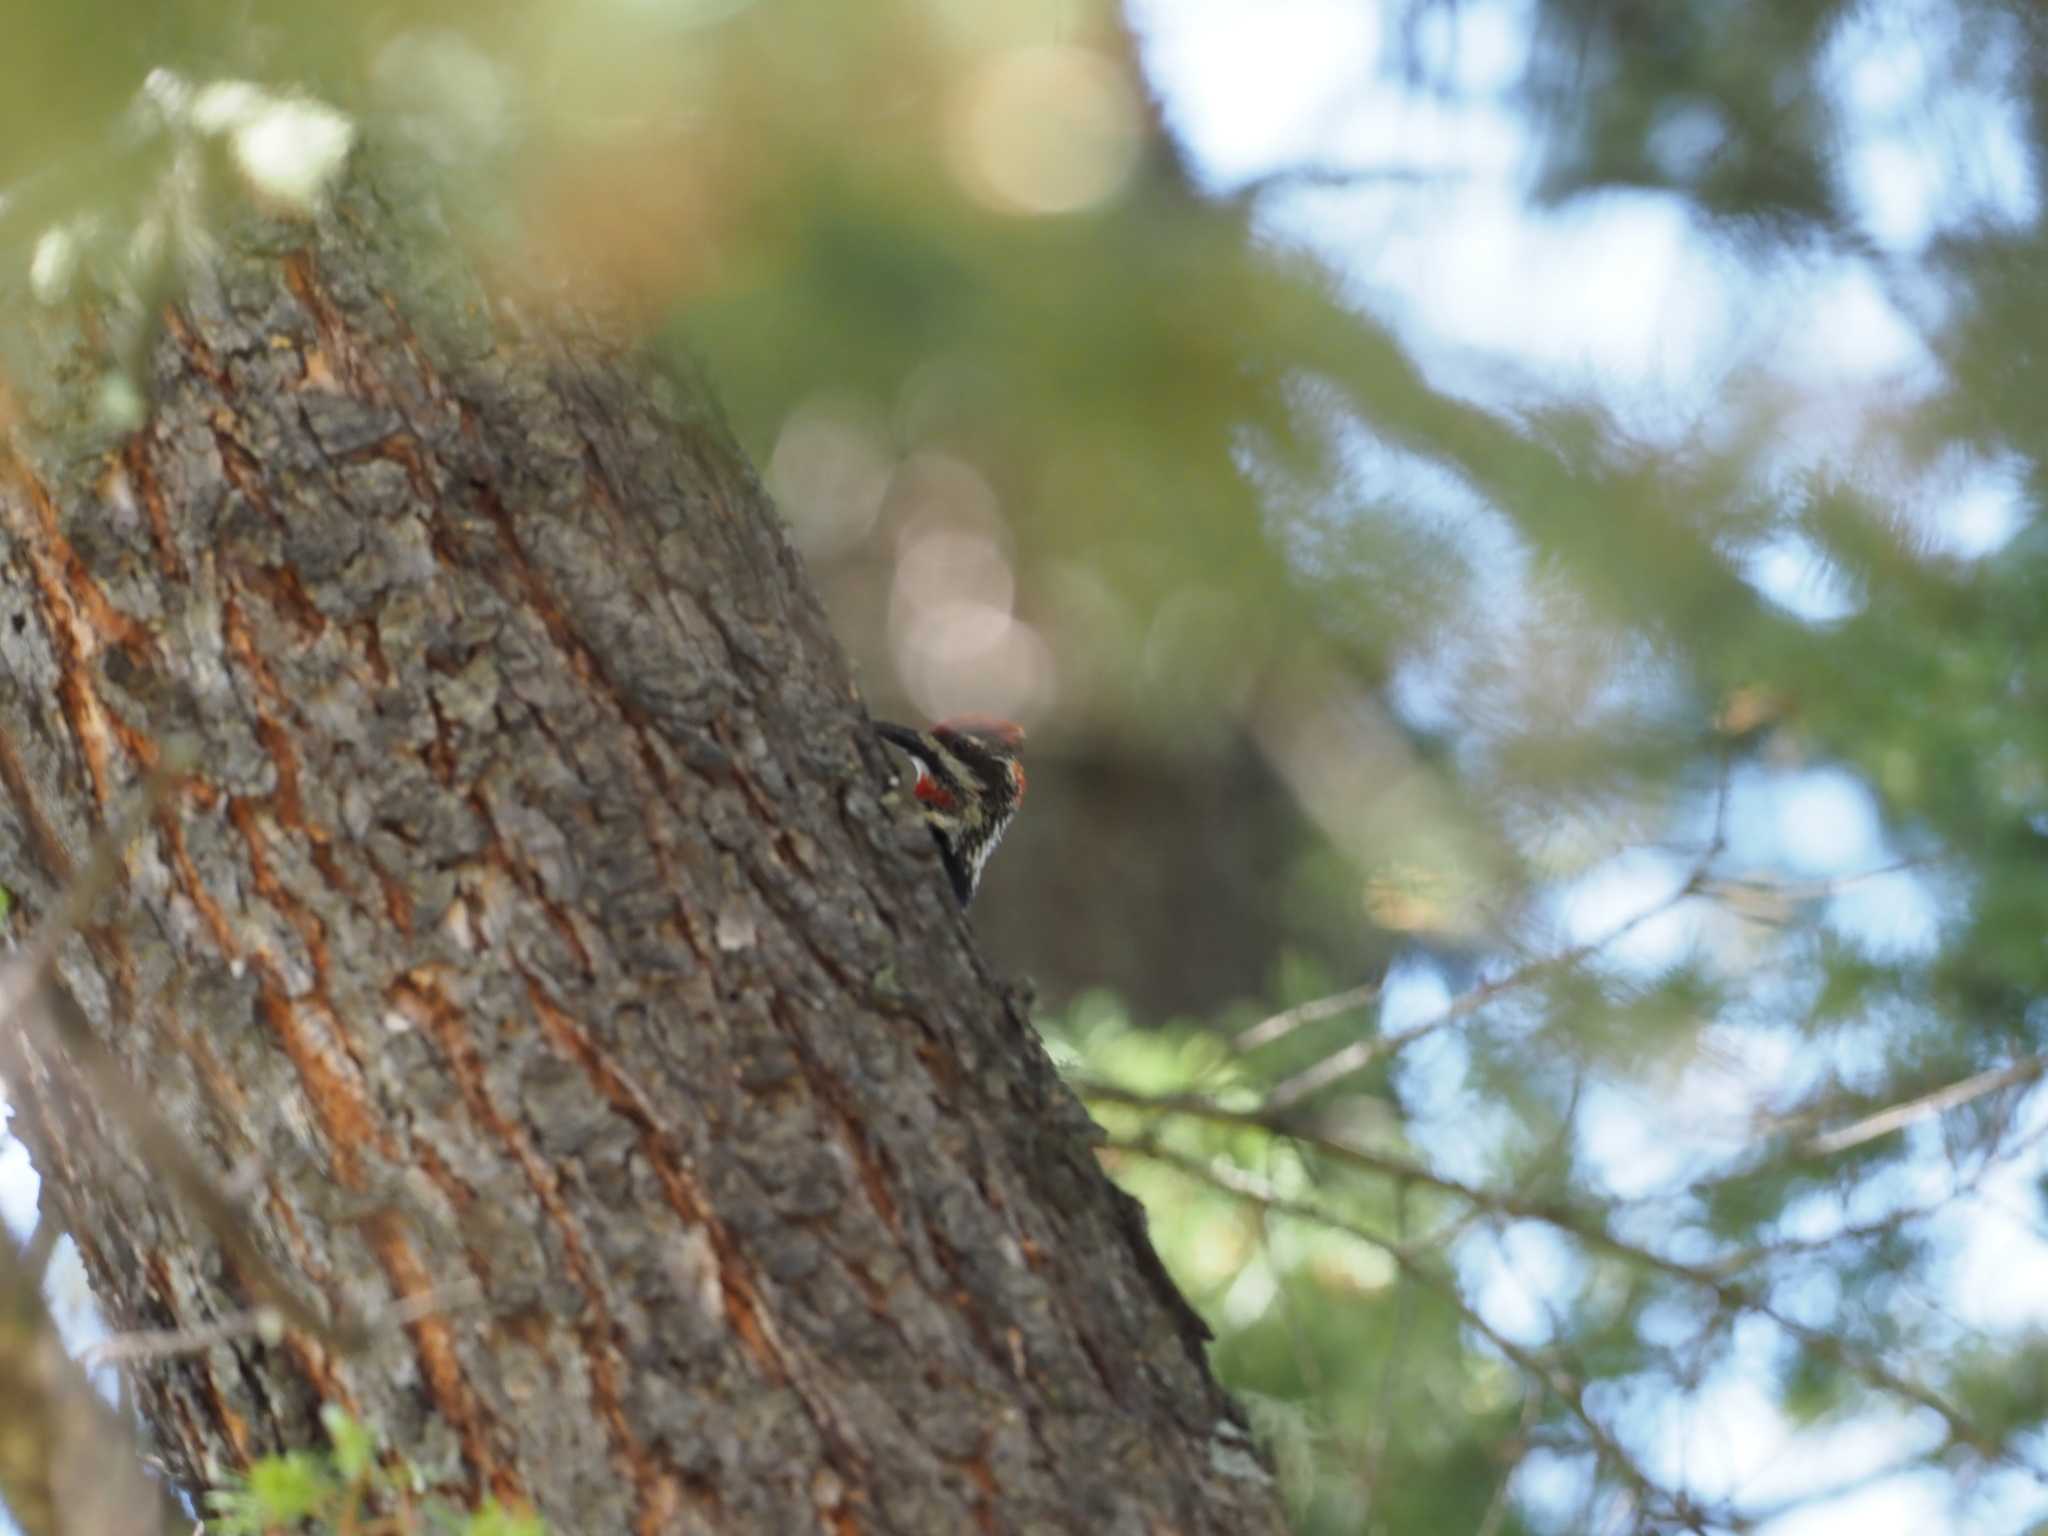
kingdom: Animalia
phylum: Chordata
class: Aves
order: Piciformes
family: Picidae
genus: Sphyrapicus
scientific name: Sphyrapicus nuchalis
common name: Red-naped sapsucker
